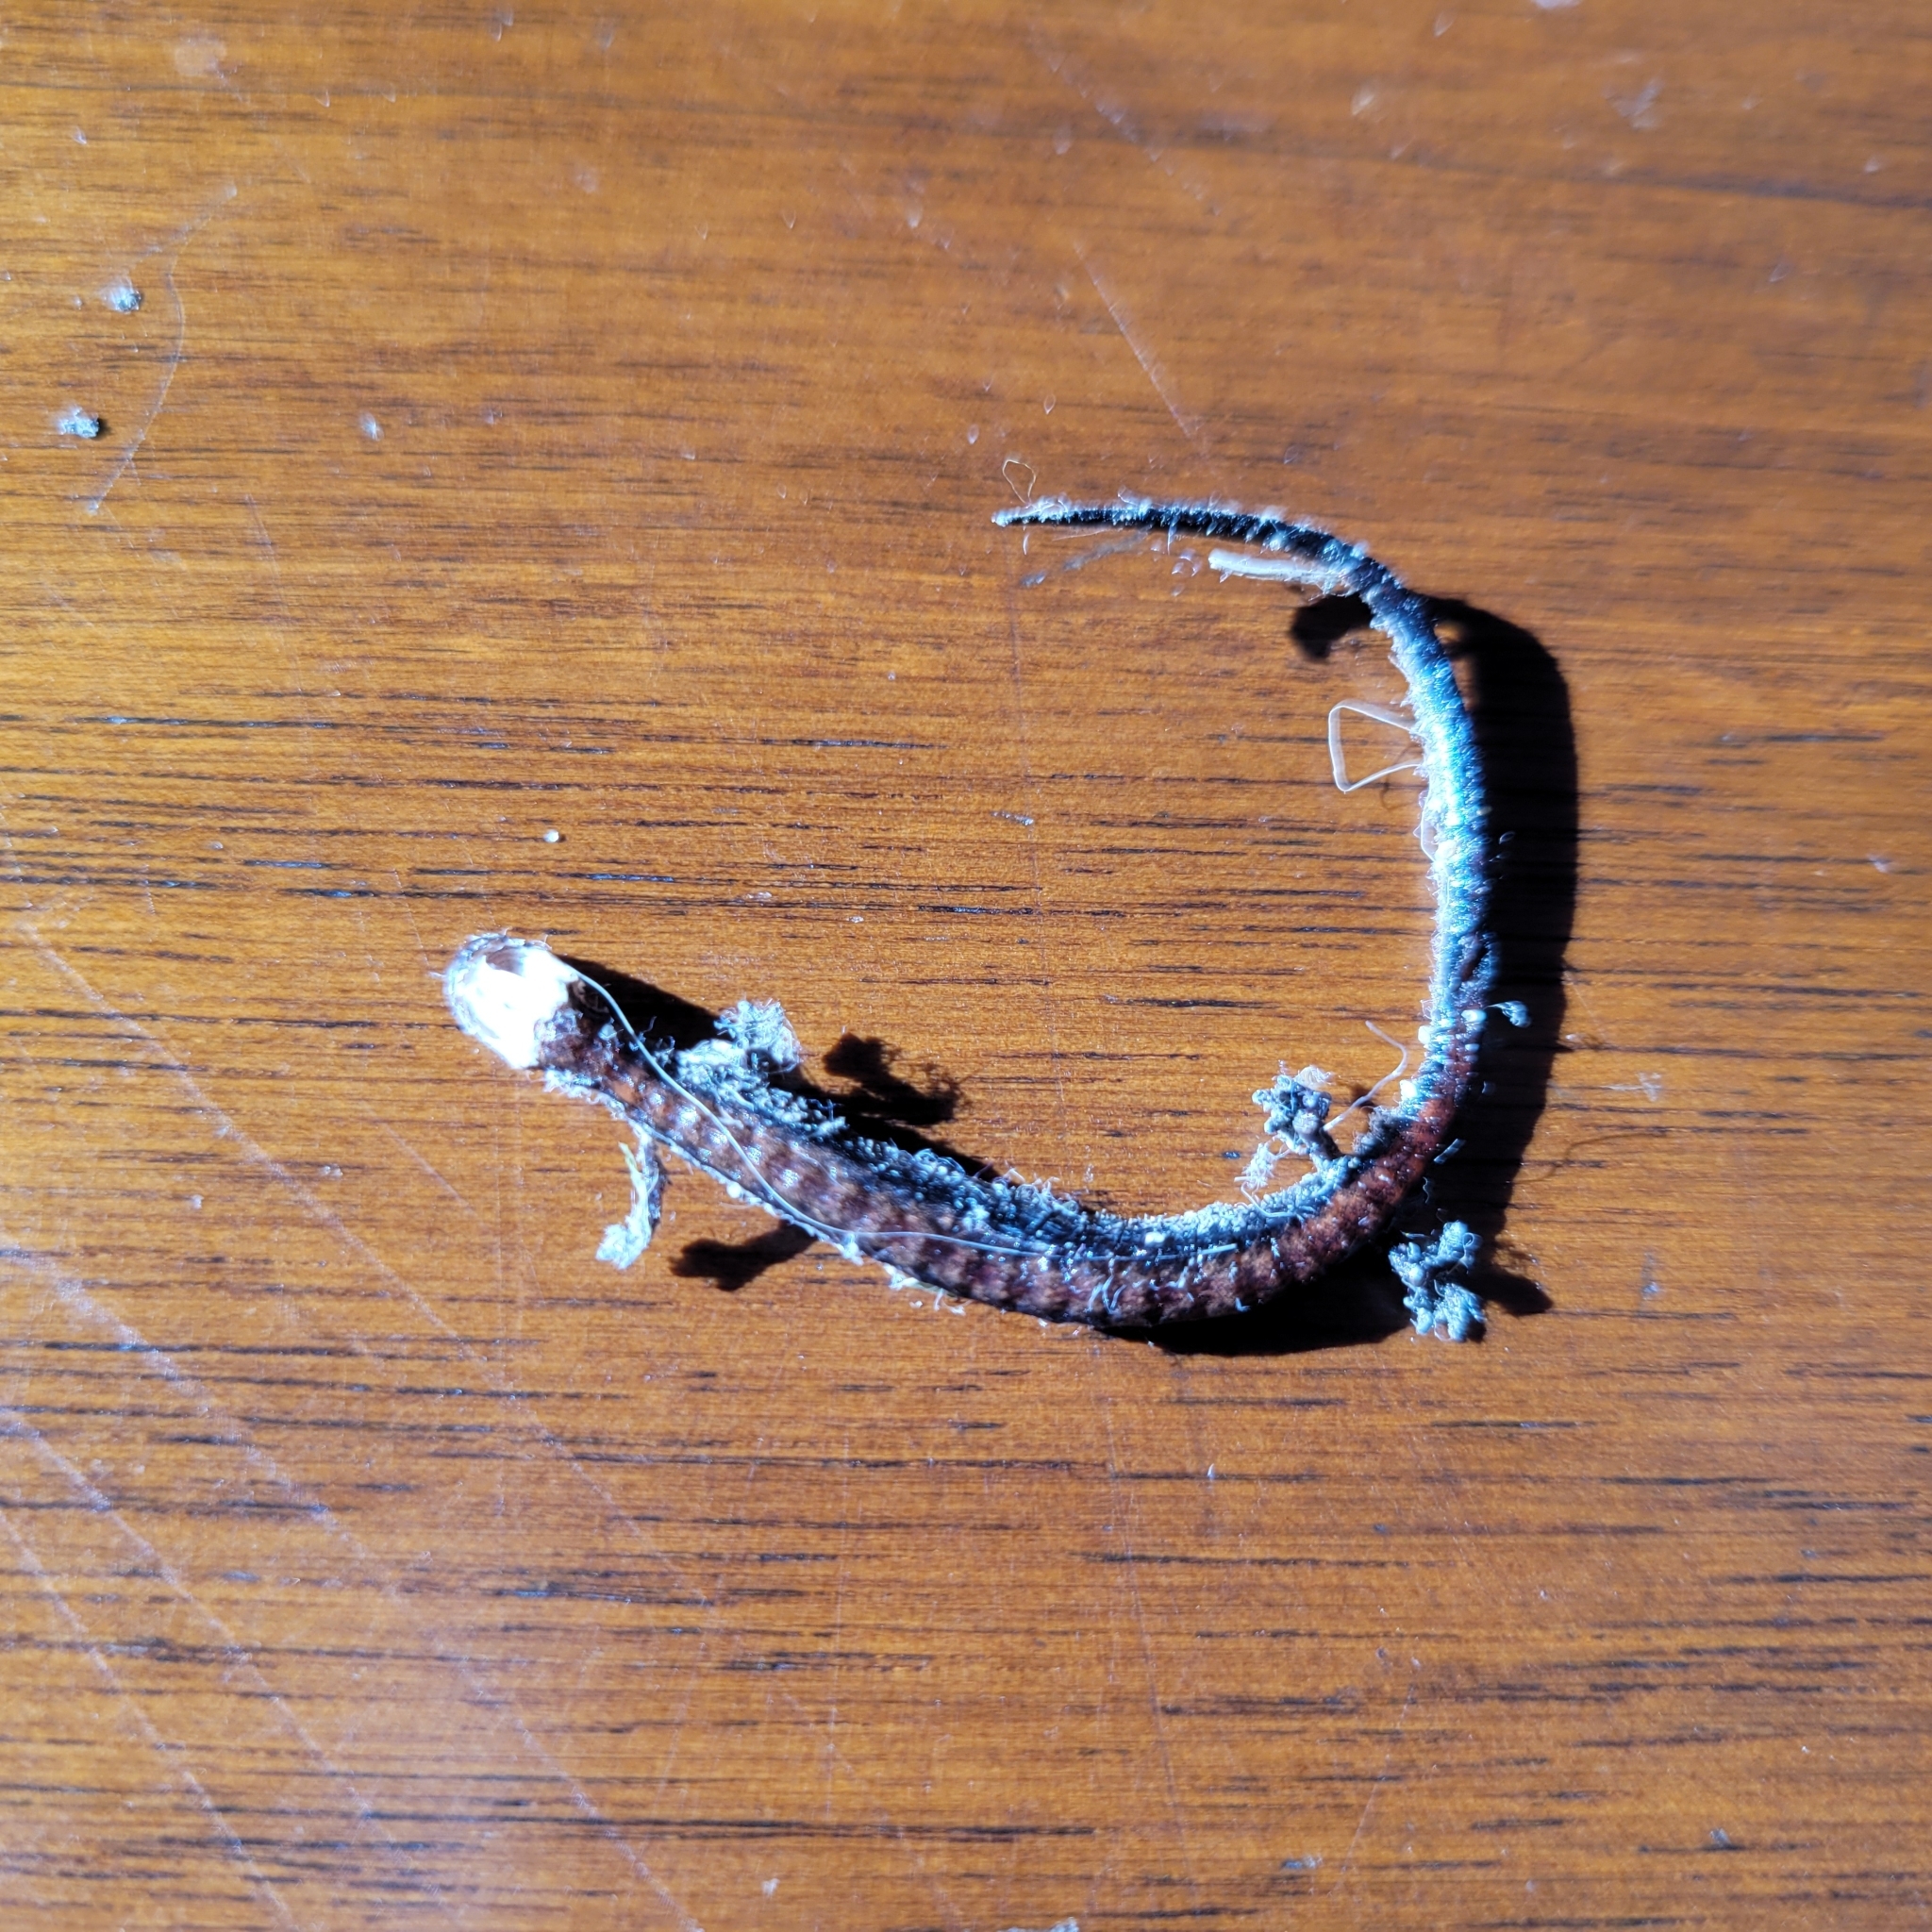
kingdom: Animalia
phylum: Chordata
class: Amphibia
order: Caudata
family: Plethodontidae
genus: Plethodon
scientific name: Plethodon cinereus
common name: Redback salamander
